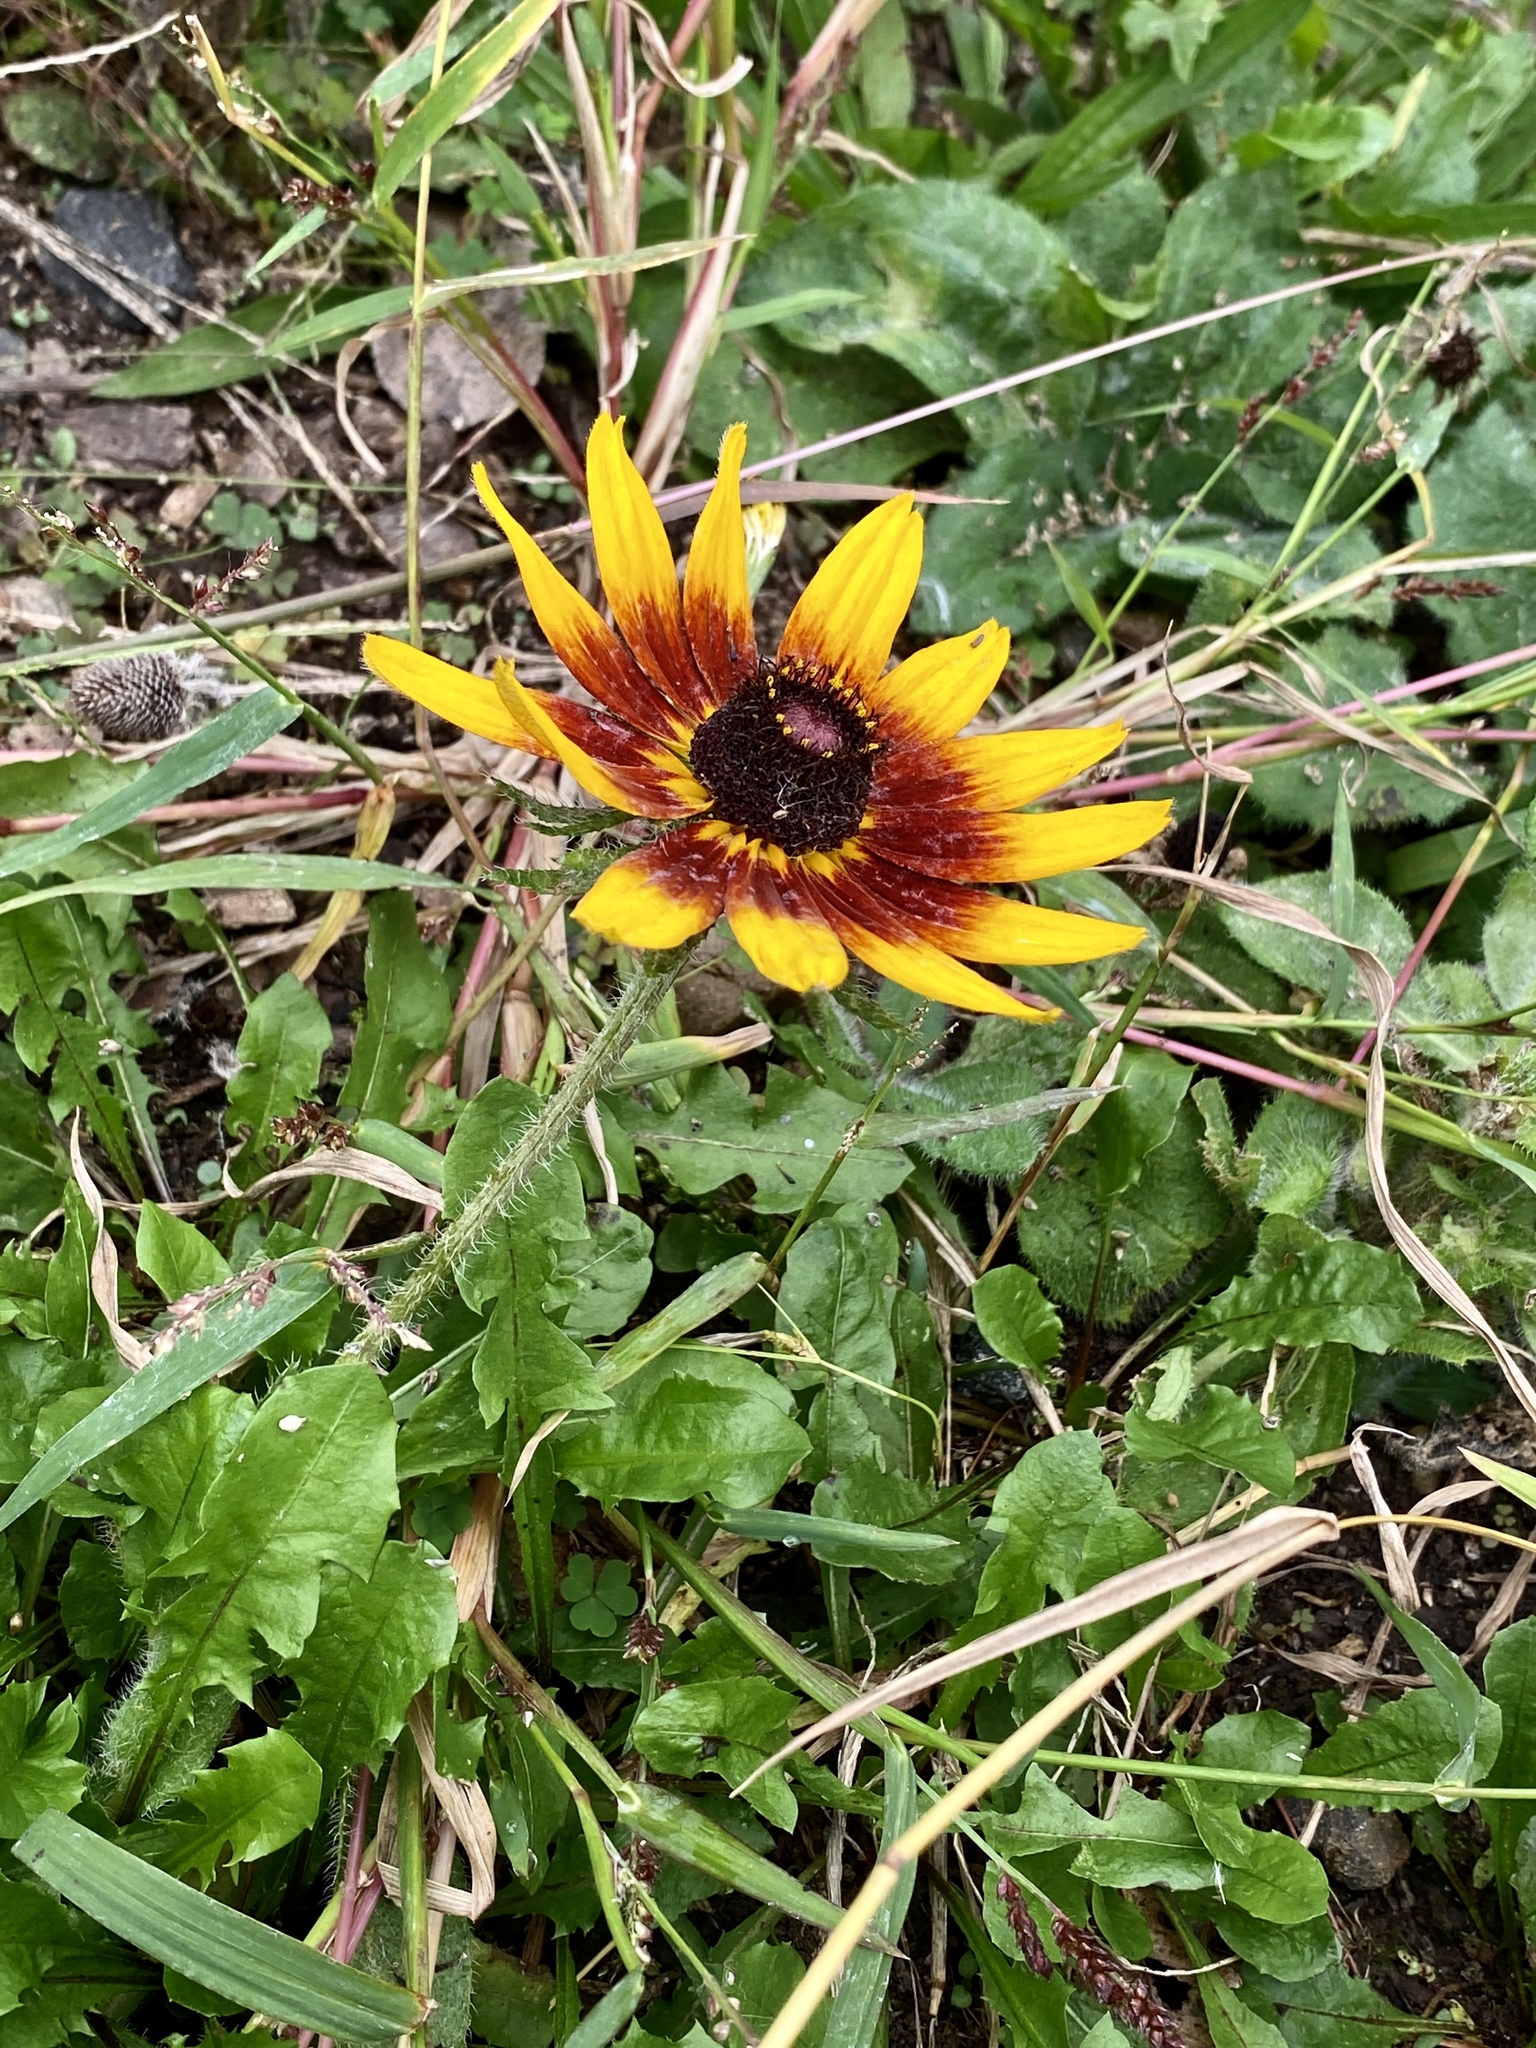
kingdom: Plantae
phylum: Tracheophyta
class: Magnoliopsida
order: Asterales
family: Asteraceae
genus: Rudbeckia
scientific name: Rudbeckia hirta
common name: Black-eyed-susan
